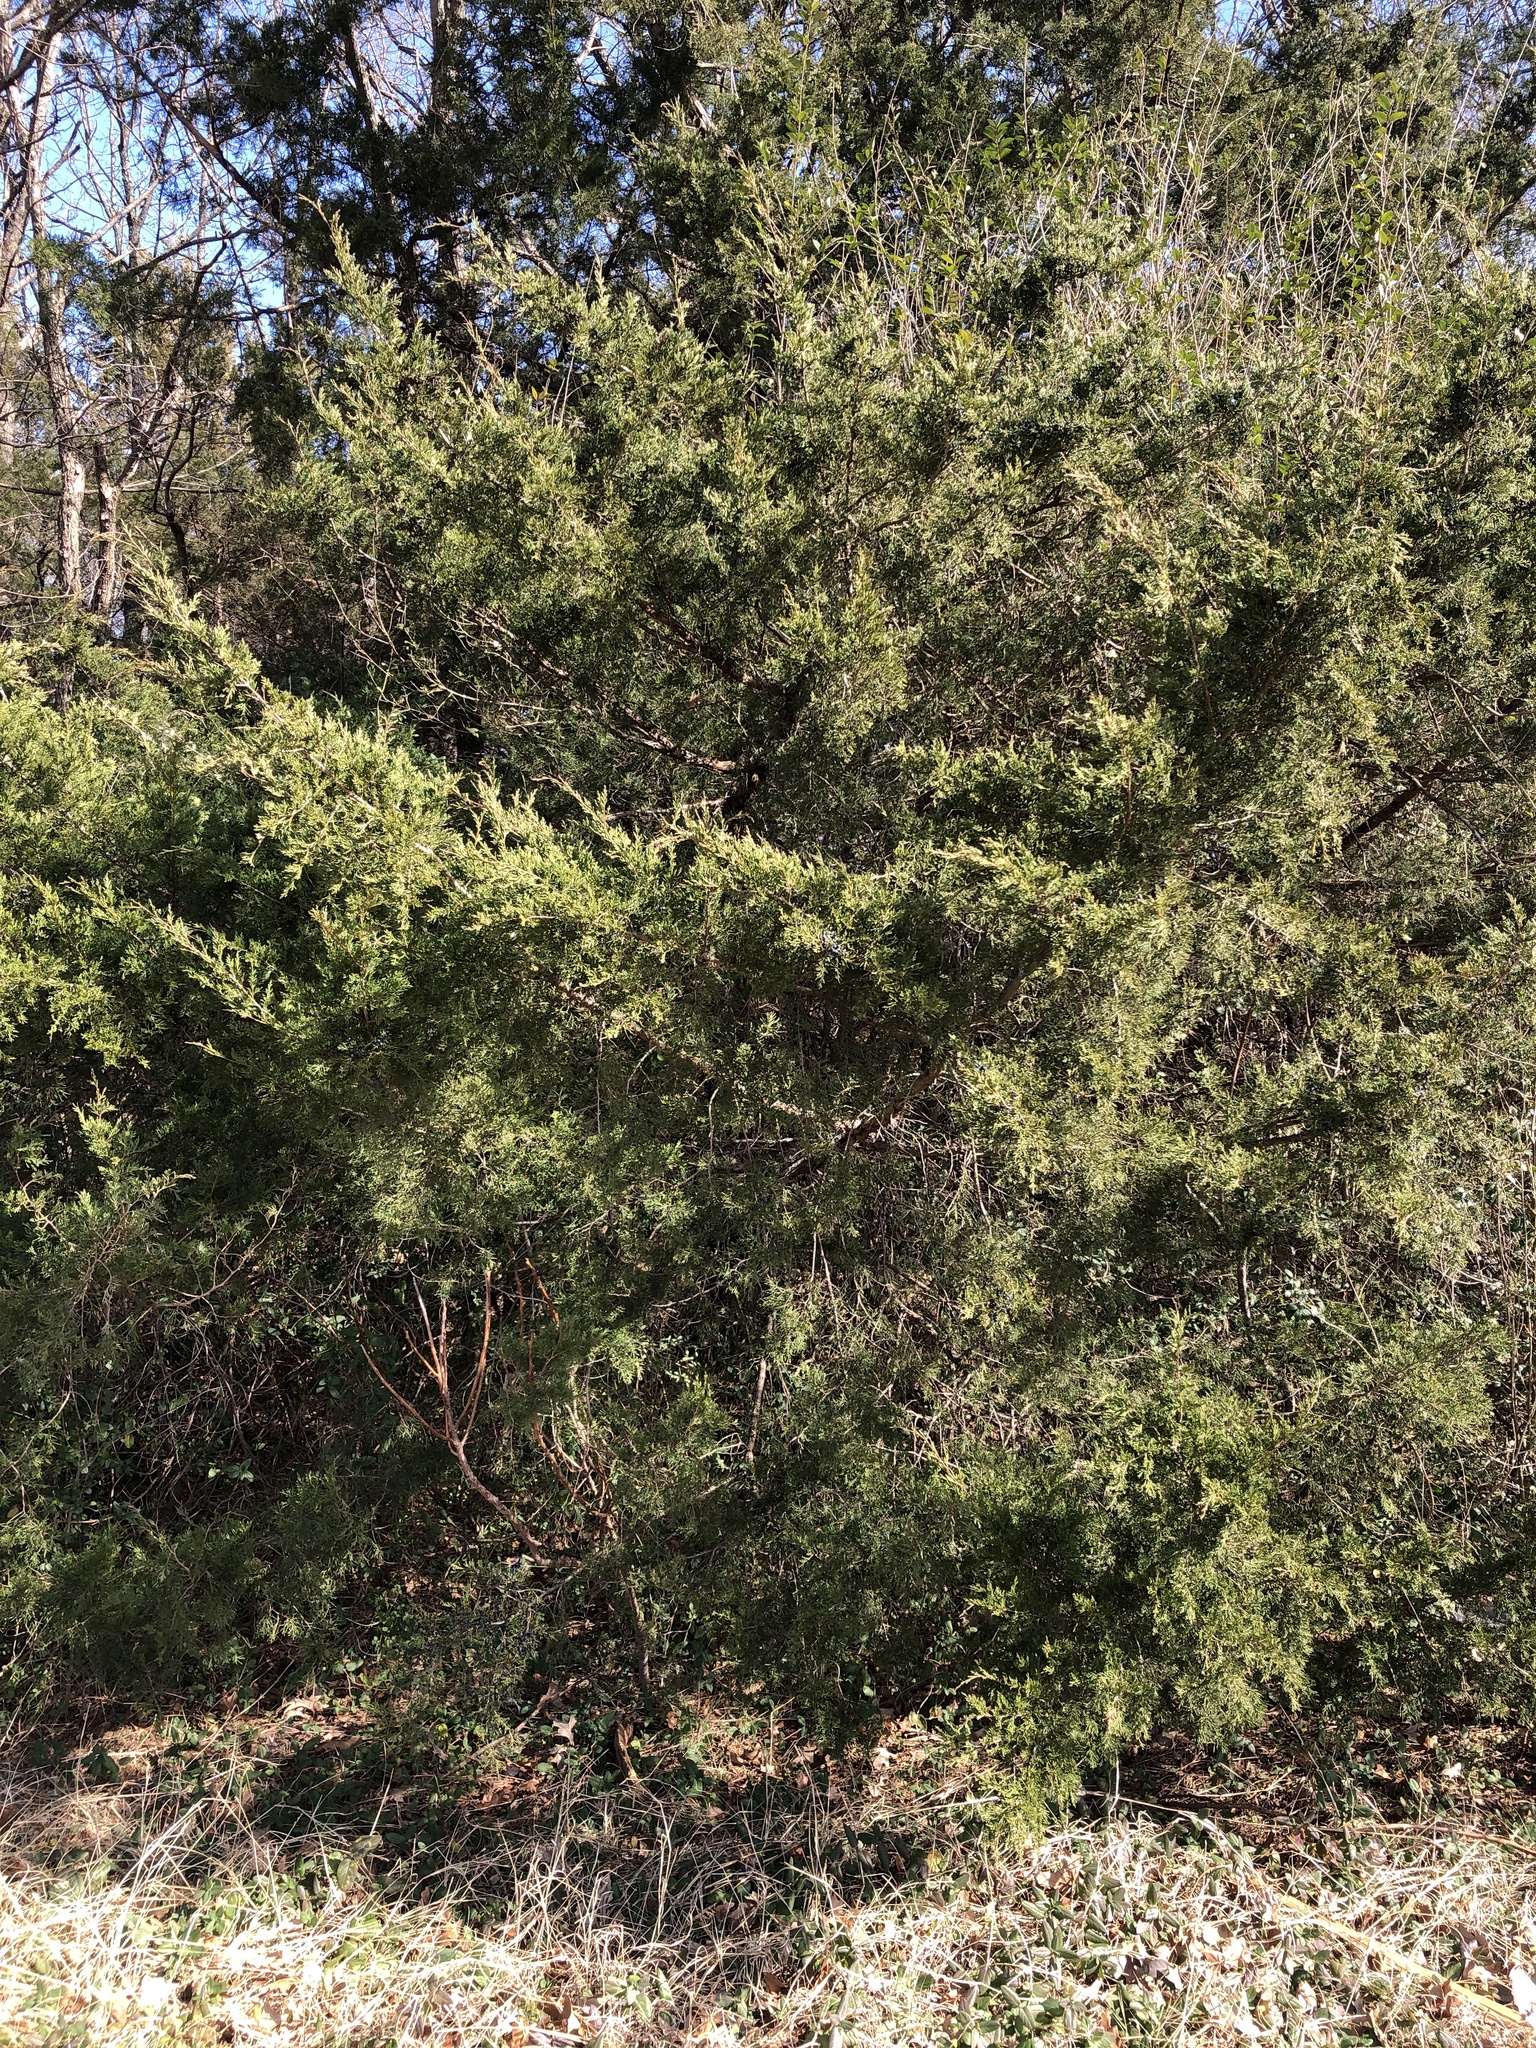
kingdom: Plantae
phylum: Tracheophyta
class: Pinopsida
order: Pinales
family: Cupressaceae
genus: Juniperus
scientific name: Juniperus virginiana
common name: Red juniper
